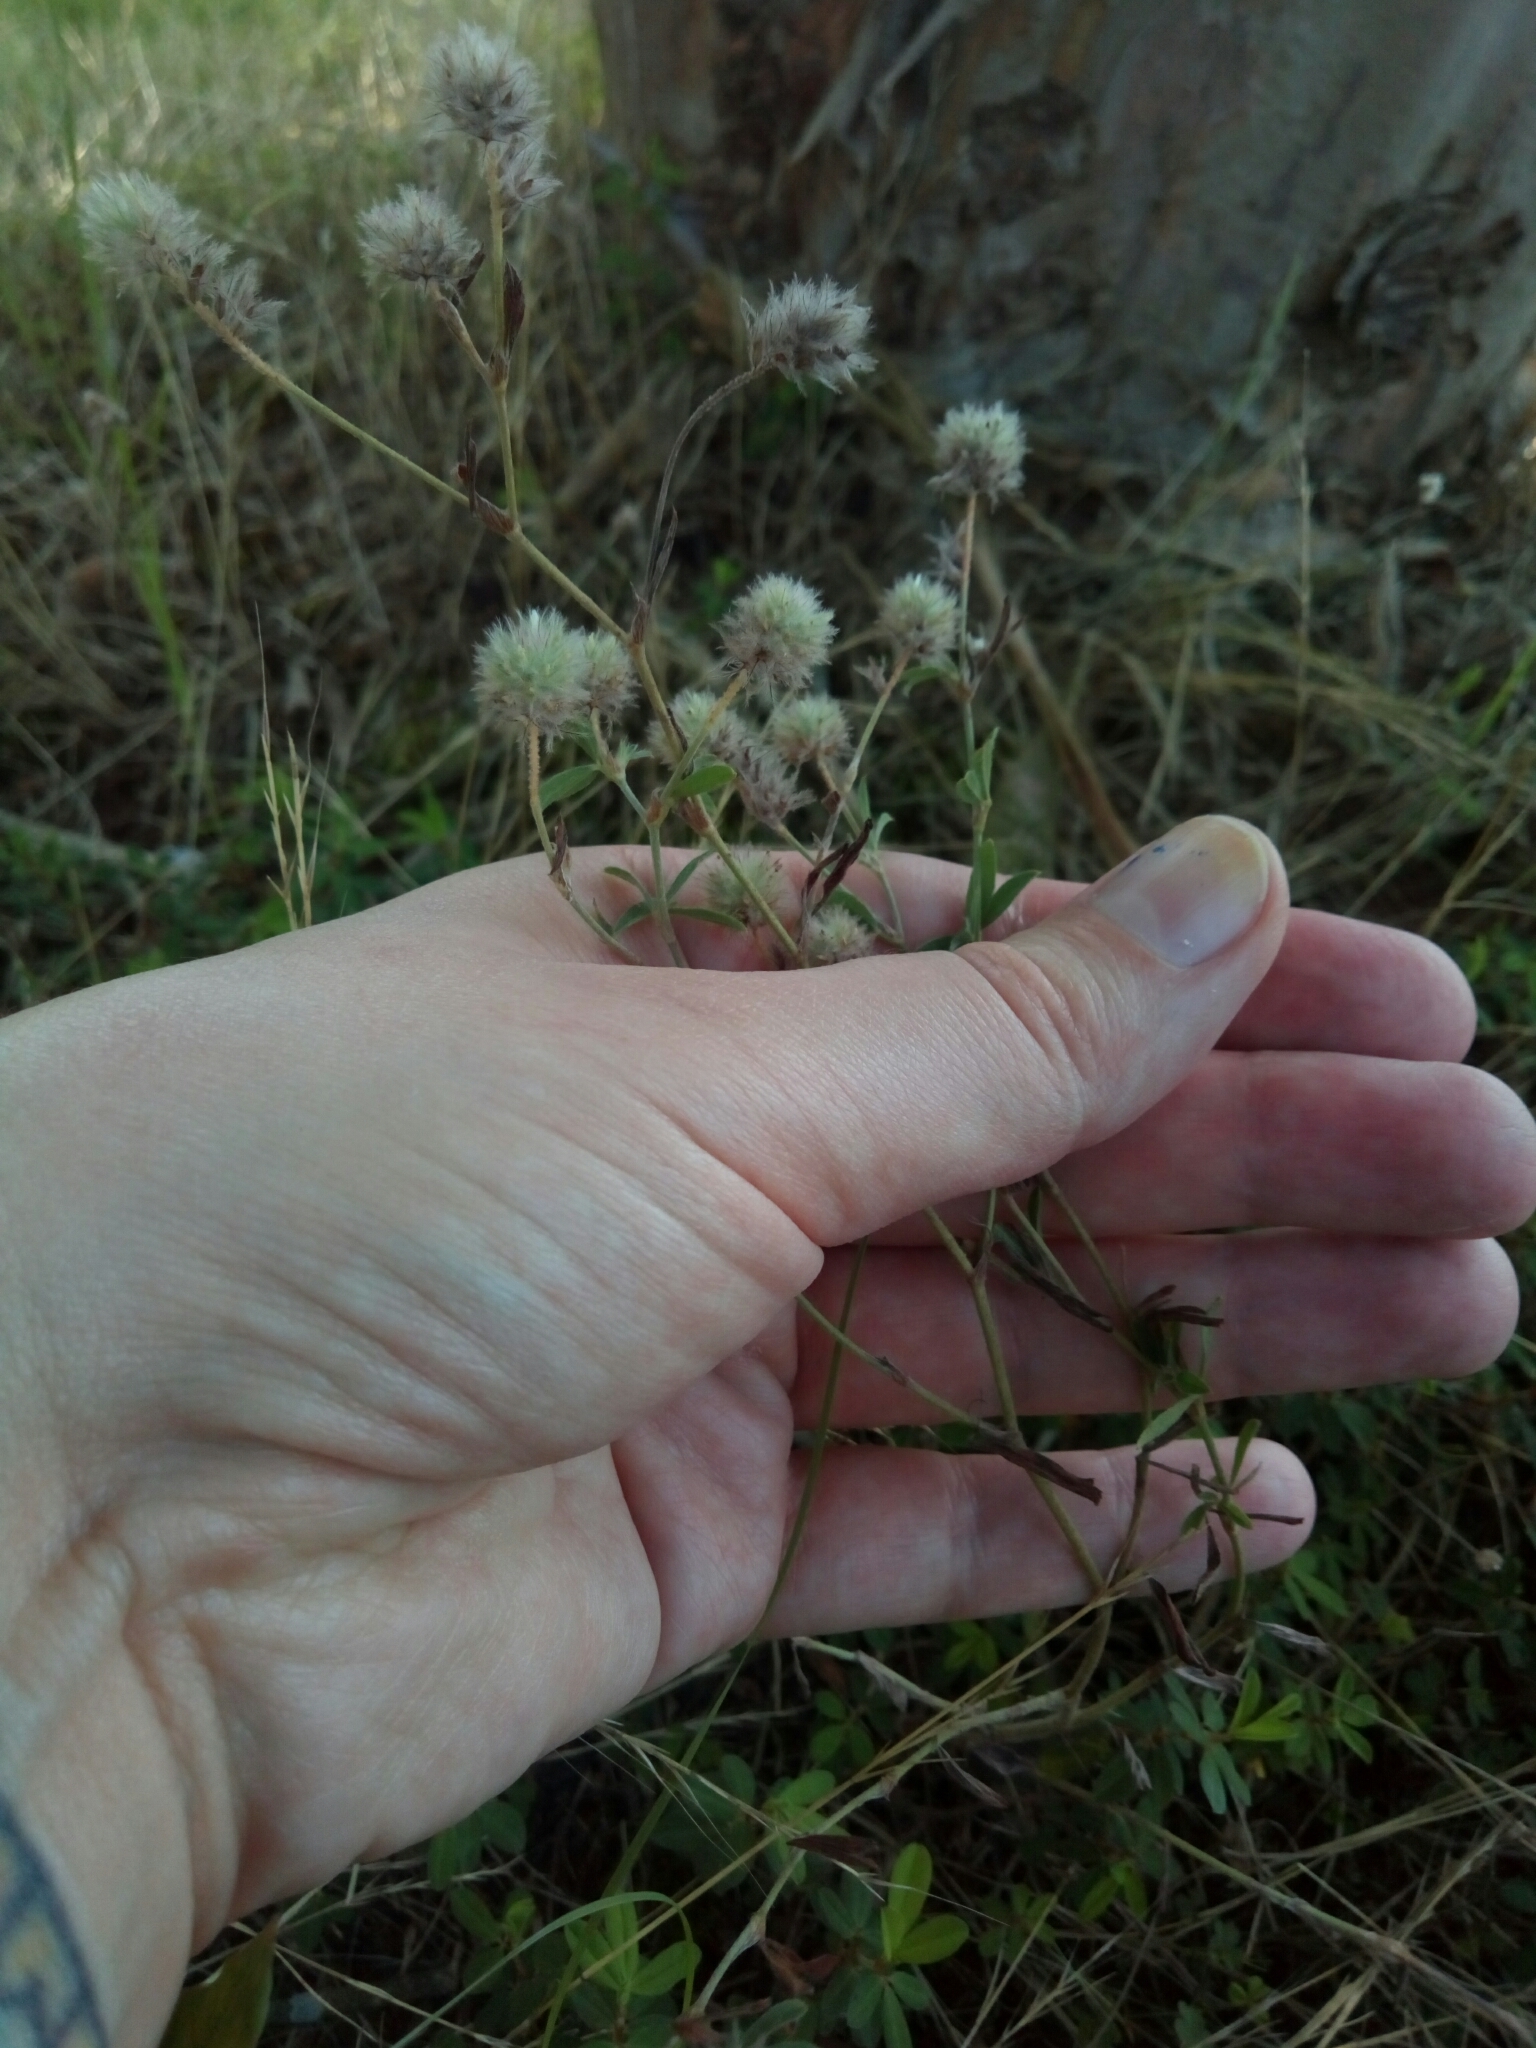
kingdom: Plantae
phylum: Tracheophyta
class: Magnoliopsida
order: Fabales
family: Fabaceae
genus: Trifolium
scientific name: Trifolium arvense
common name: Hare's-foot clover
